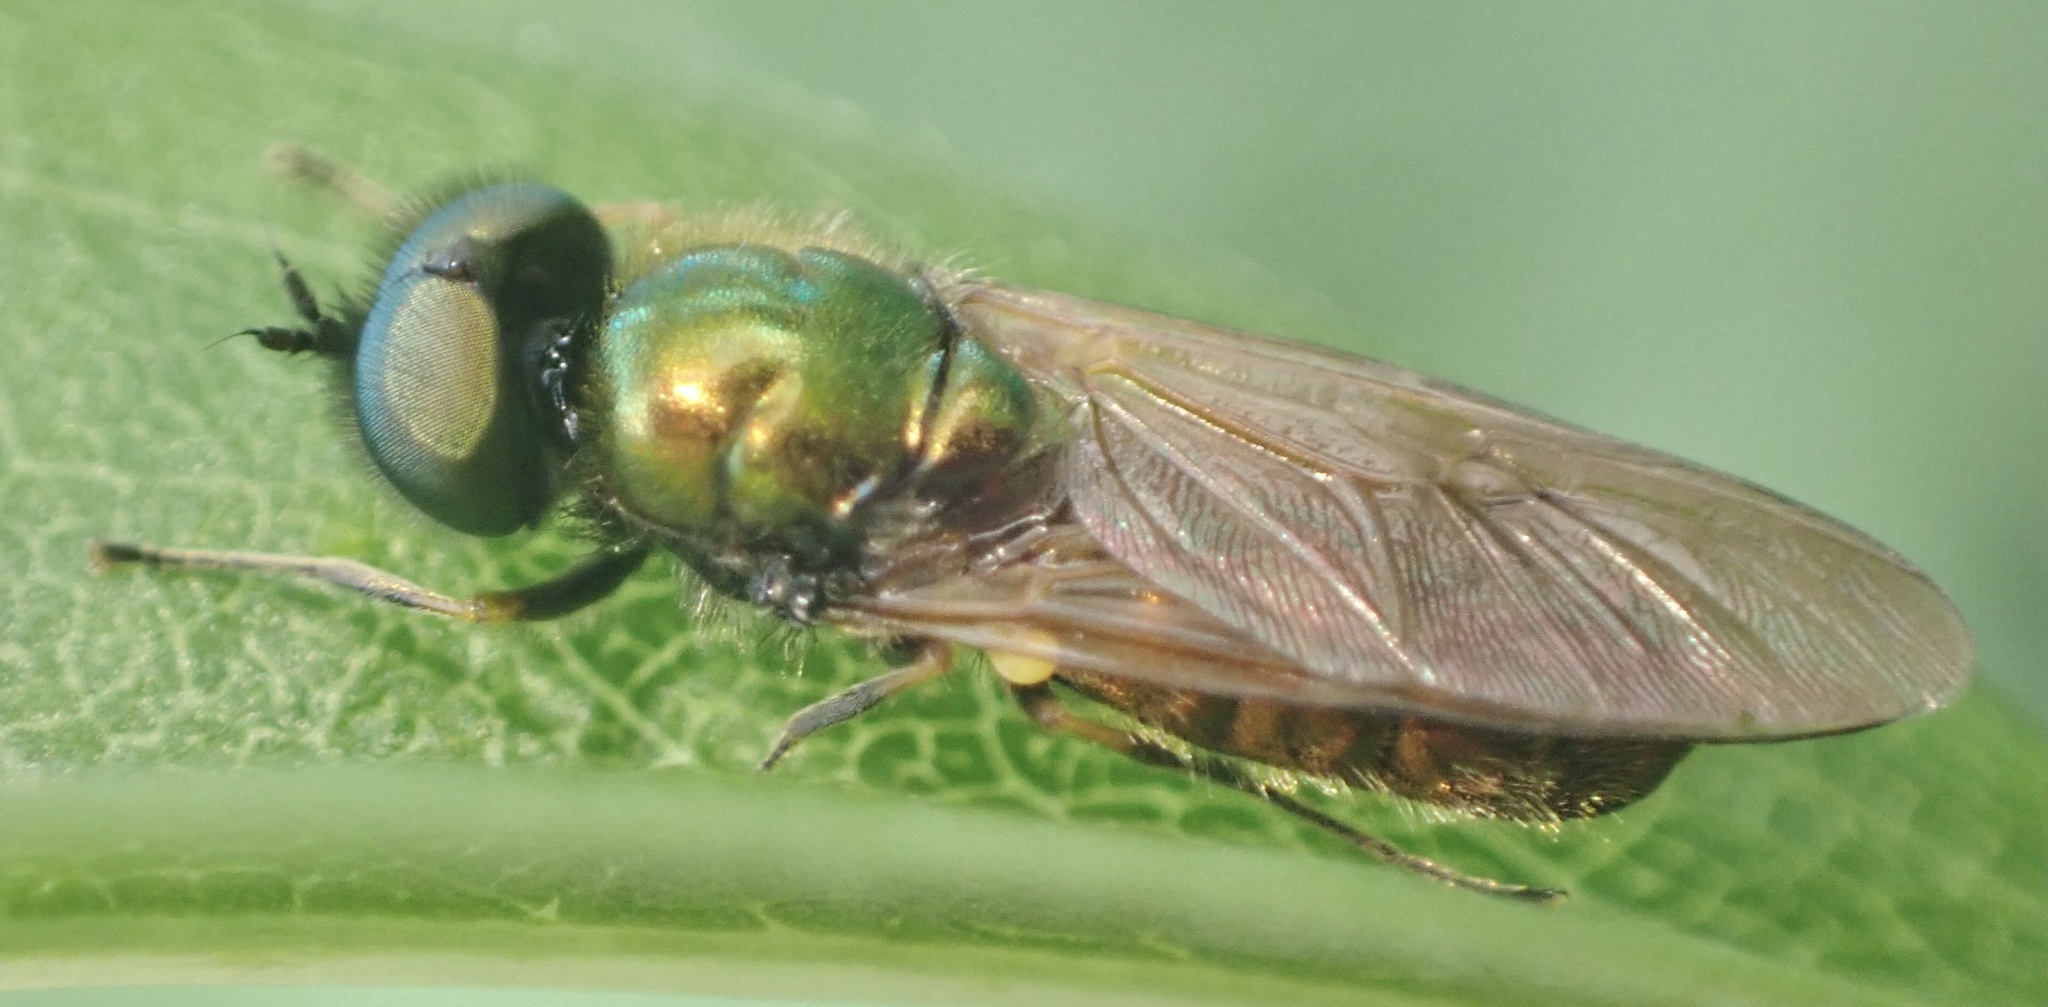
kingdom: Animalia
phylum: Arthropoda
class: Insecta
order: Diptera
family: Stratiomyidae
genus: Chloromyia
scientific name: Chloromyia formosa
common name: Soldier fly
